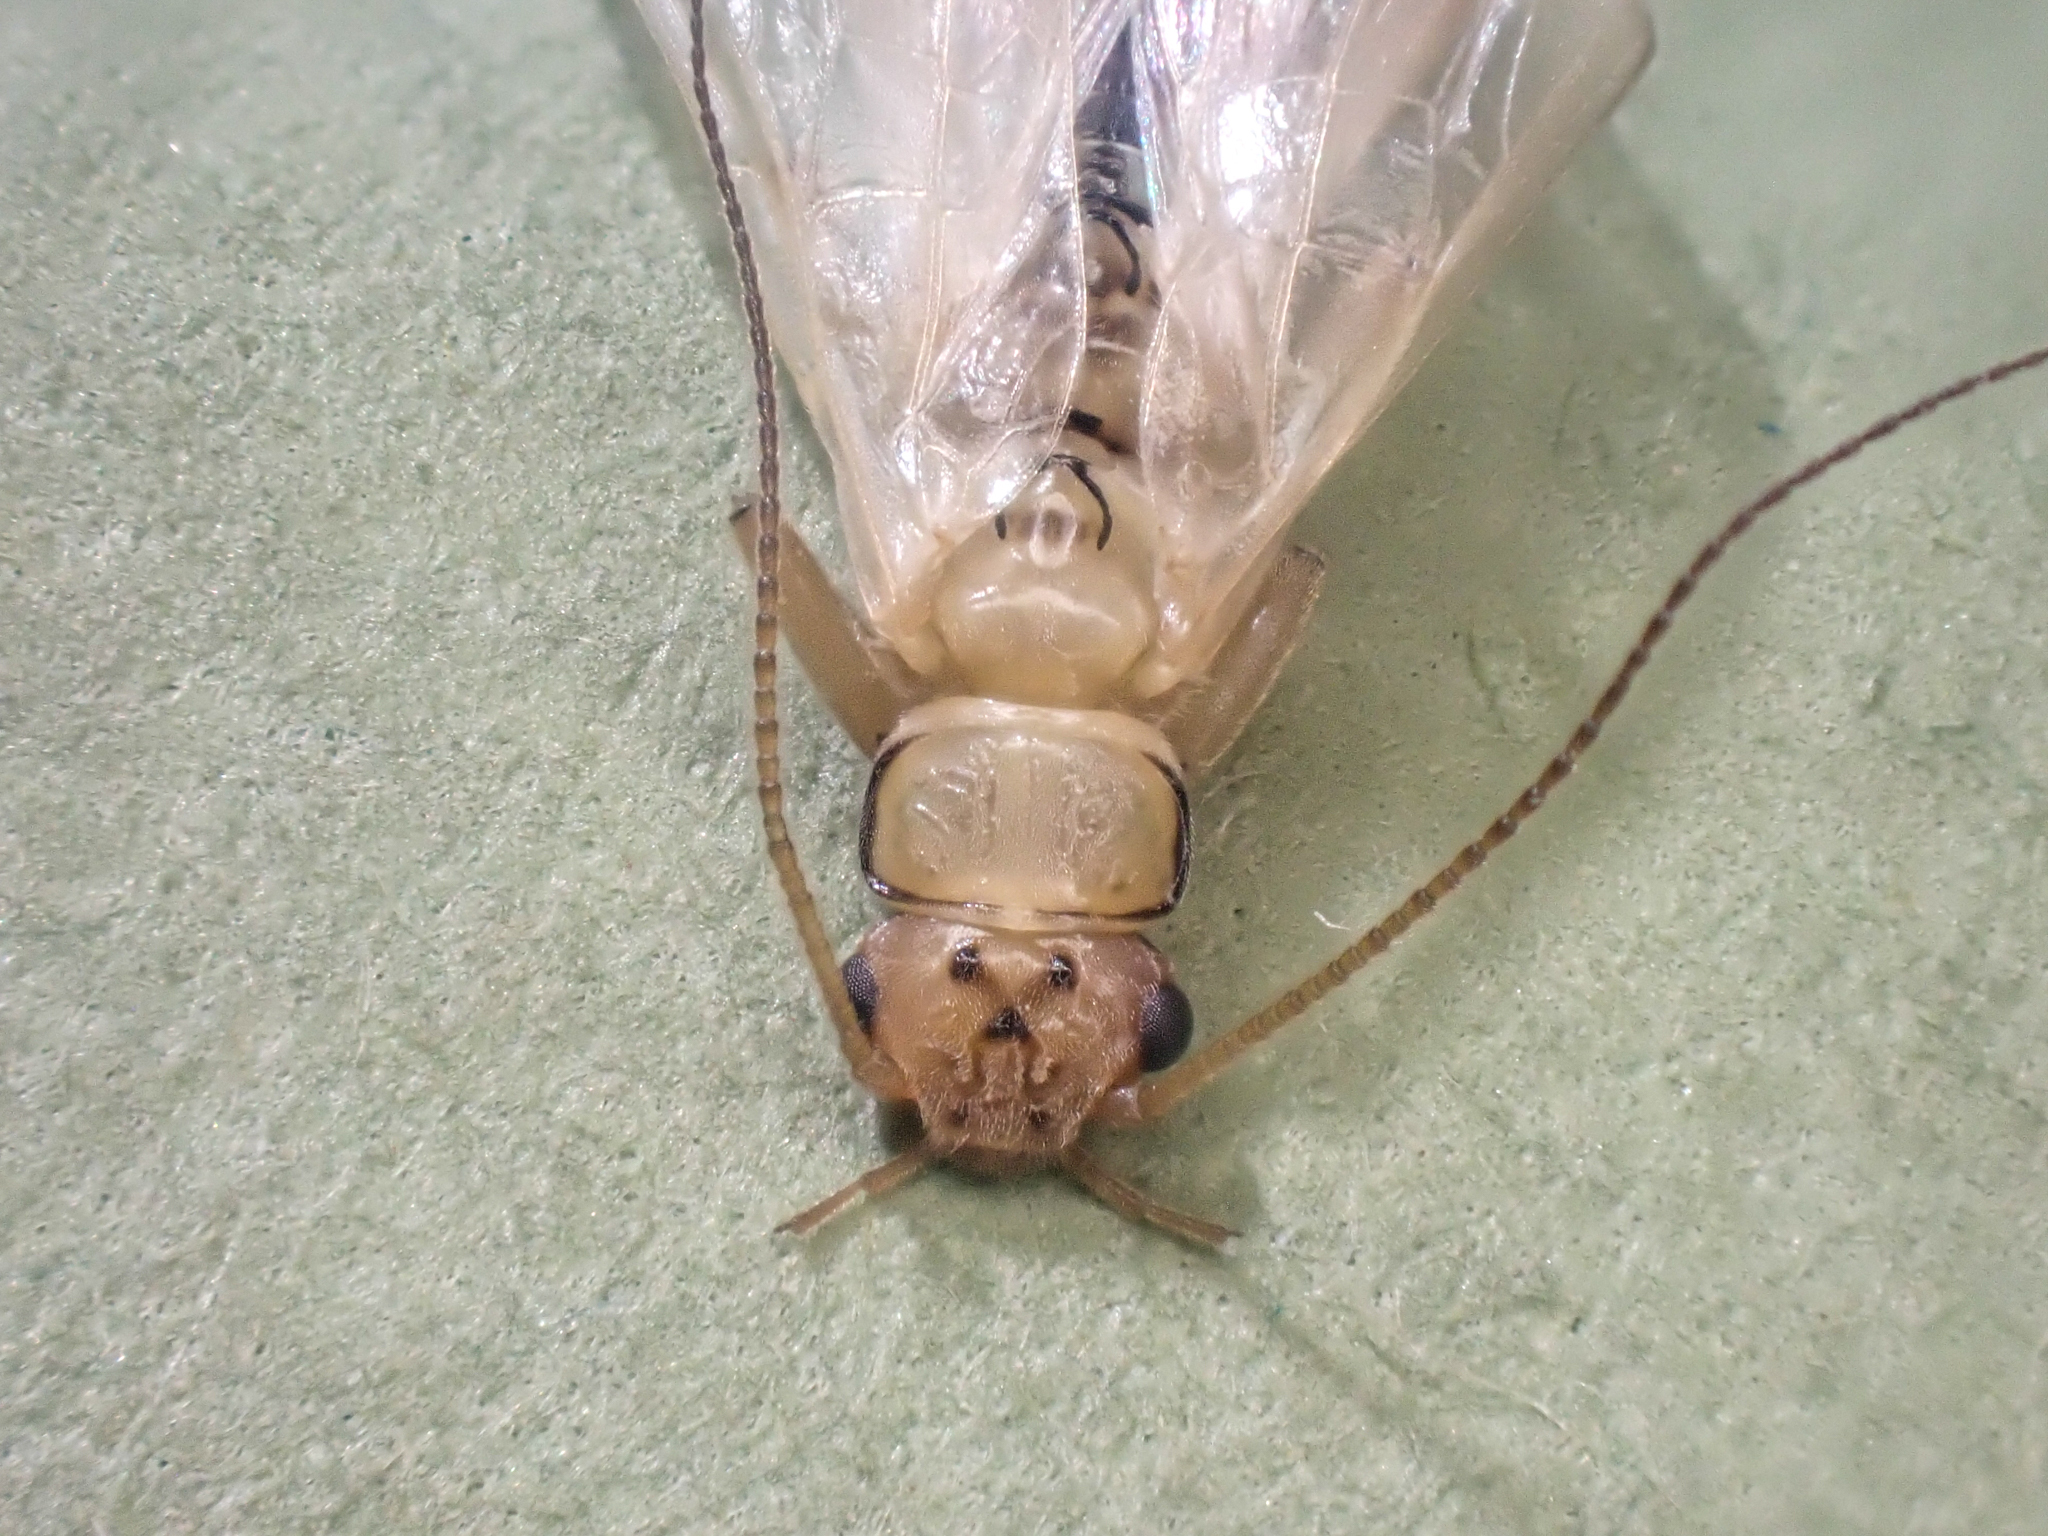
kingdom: Animalia
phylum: Arthropoda
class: Insecta
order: Plecoptera
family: Chloroperlidae
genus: Sweltsa
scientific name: Sweltsa fidelis
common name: Mountain sallfly
